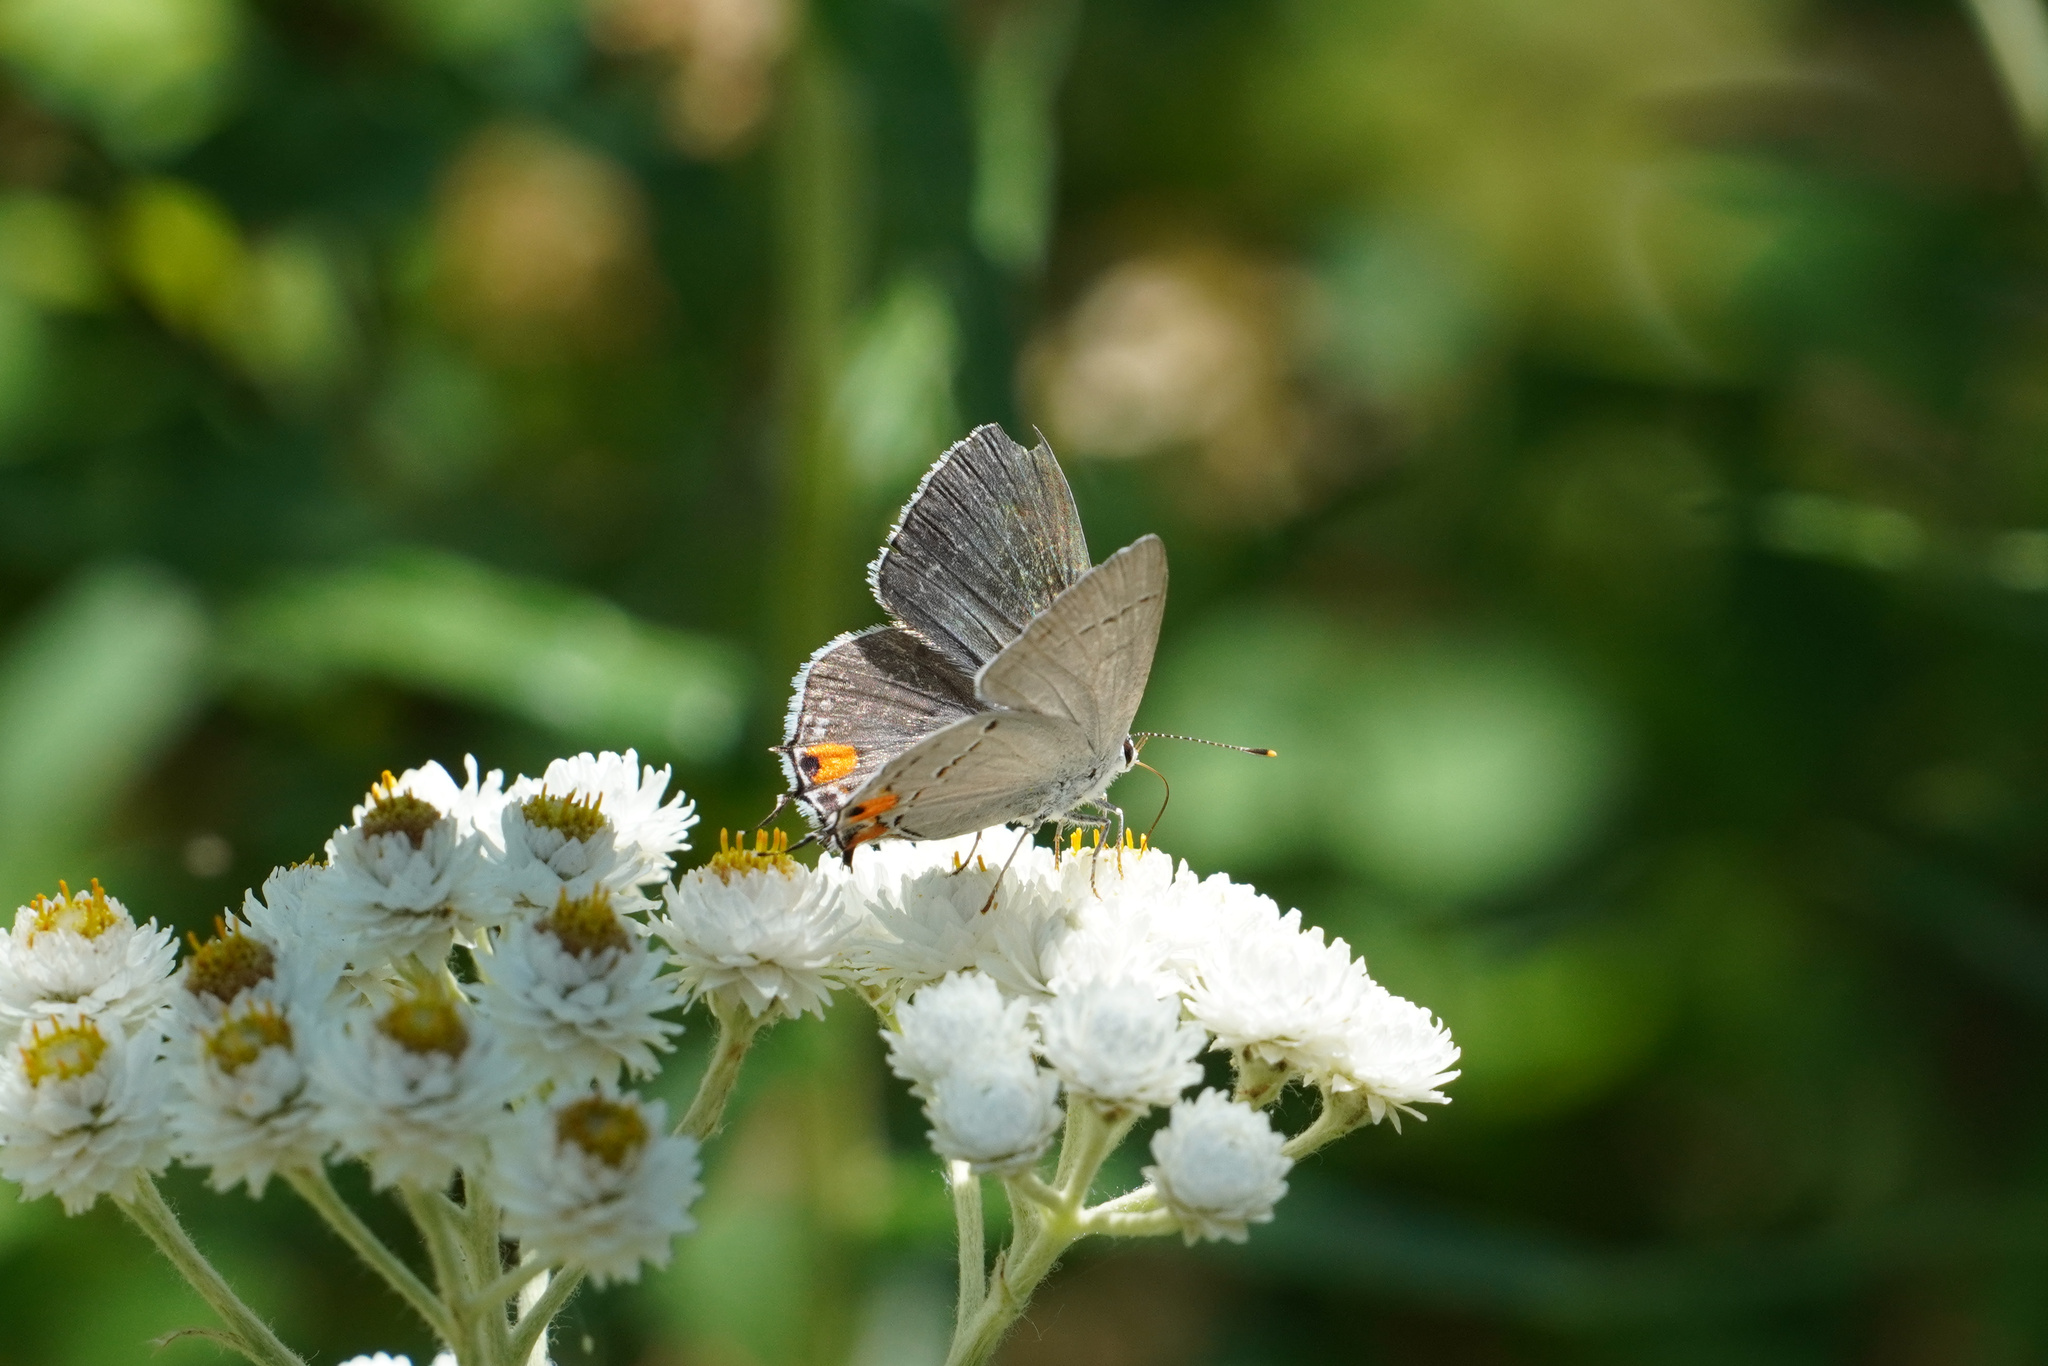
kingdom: Animalia
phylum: Arthropoda
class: Insecta
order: Lepidoptera
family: Lycaenidae
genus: Strymon
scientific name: Strymon melinus
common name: Gray hairstreak
